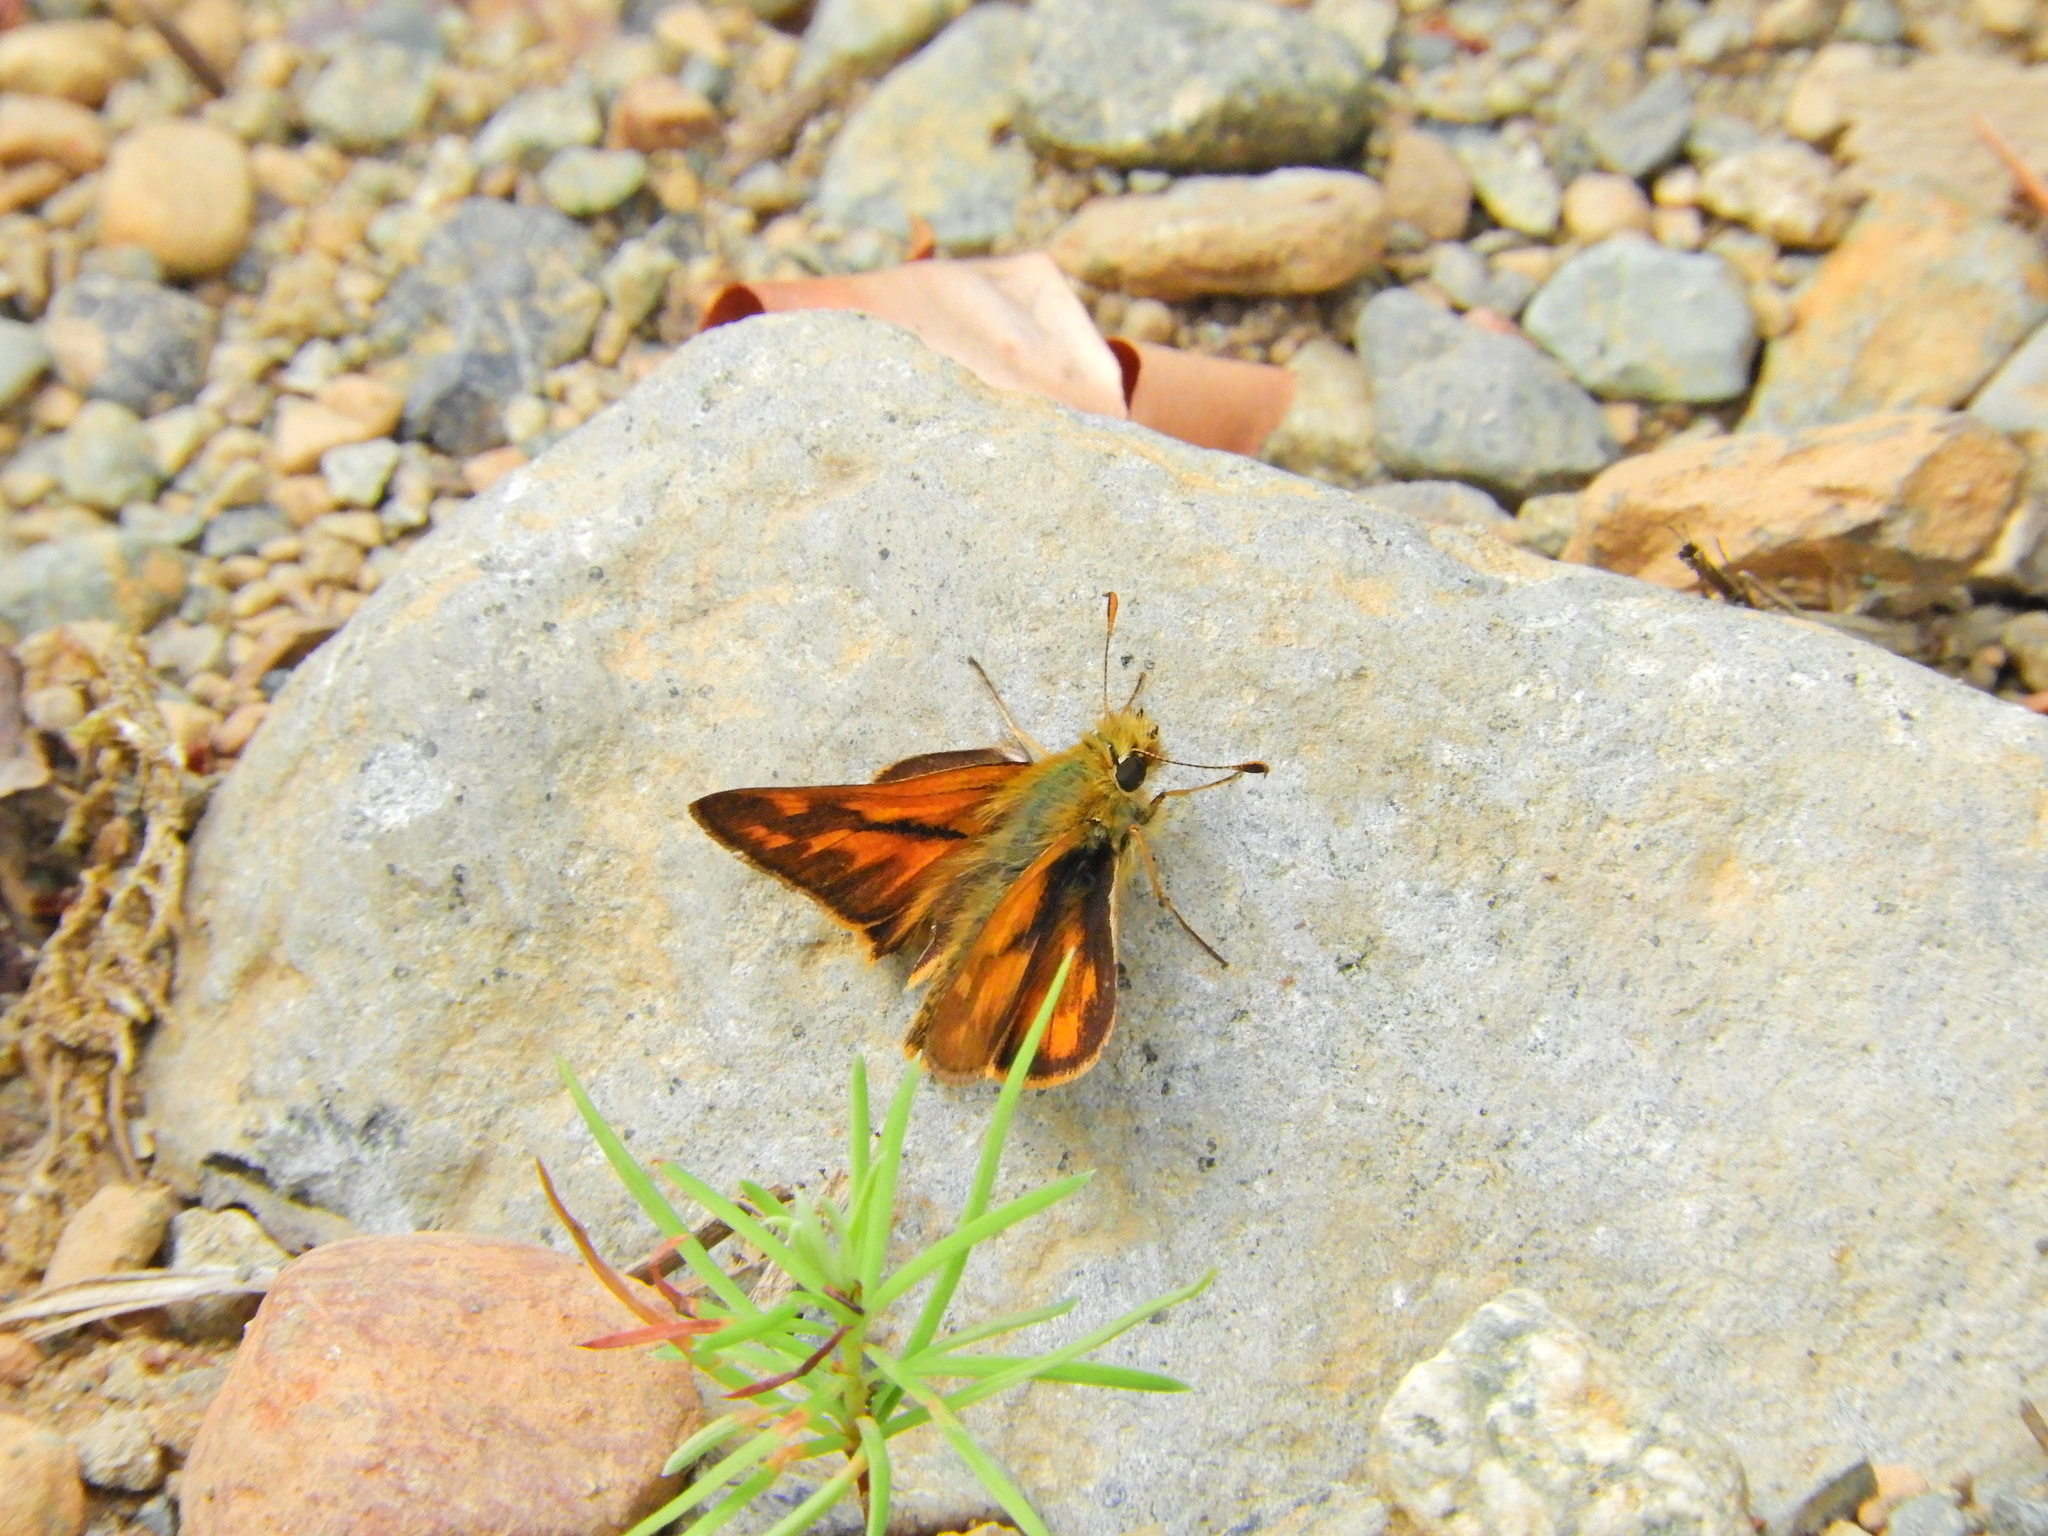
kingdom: Animalia
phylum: Arthropoda
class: Insecta
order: Lepidoptera
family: Hesperiidae
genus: Ochlodes
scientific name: Ochlodes sylvanoides
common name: Woodland skipper
